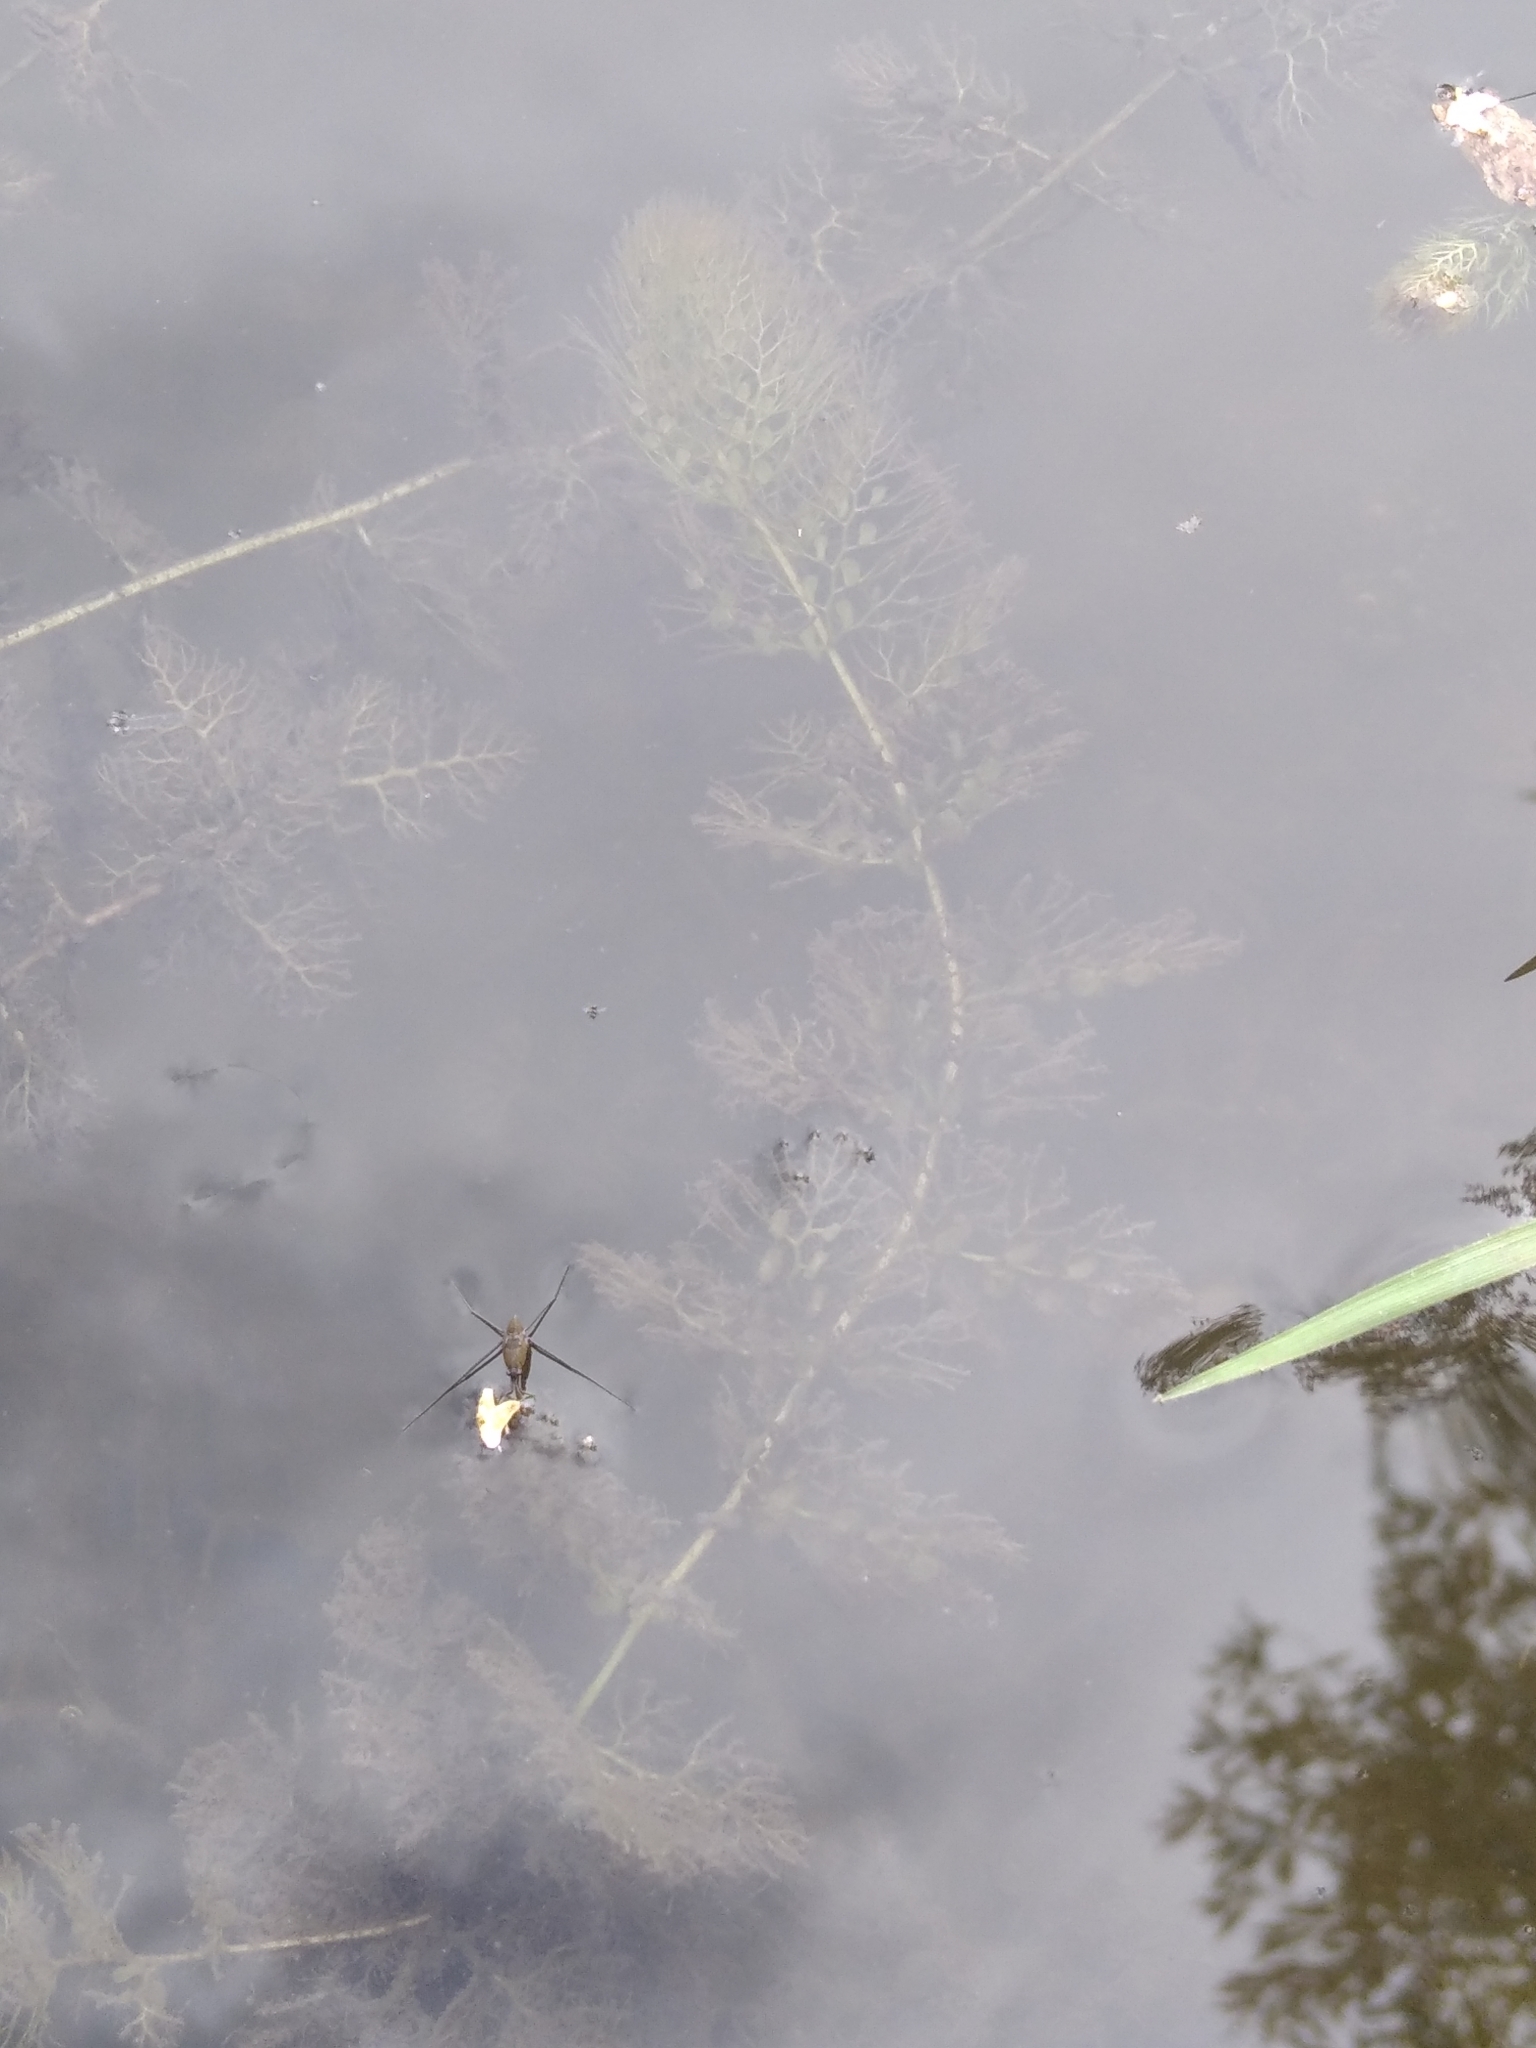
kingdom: Plantae
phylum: Tracheophyta
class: Magnoliopsida
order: Lamiales
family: Lentibulariaceae
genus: Utricularia
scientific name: Utricularia
